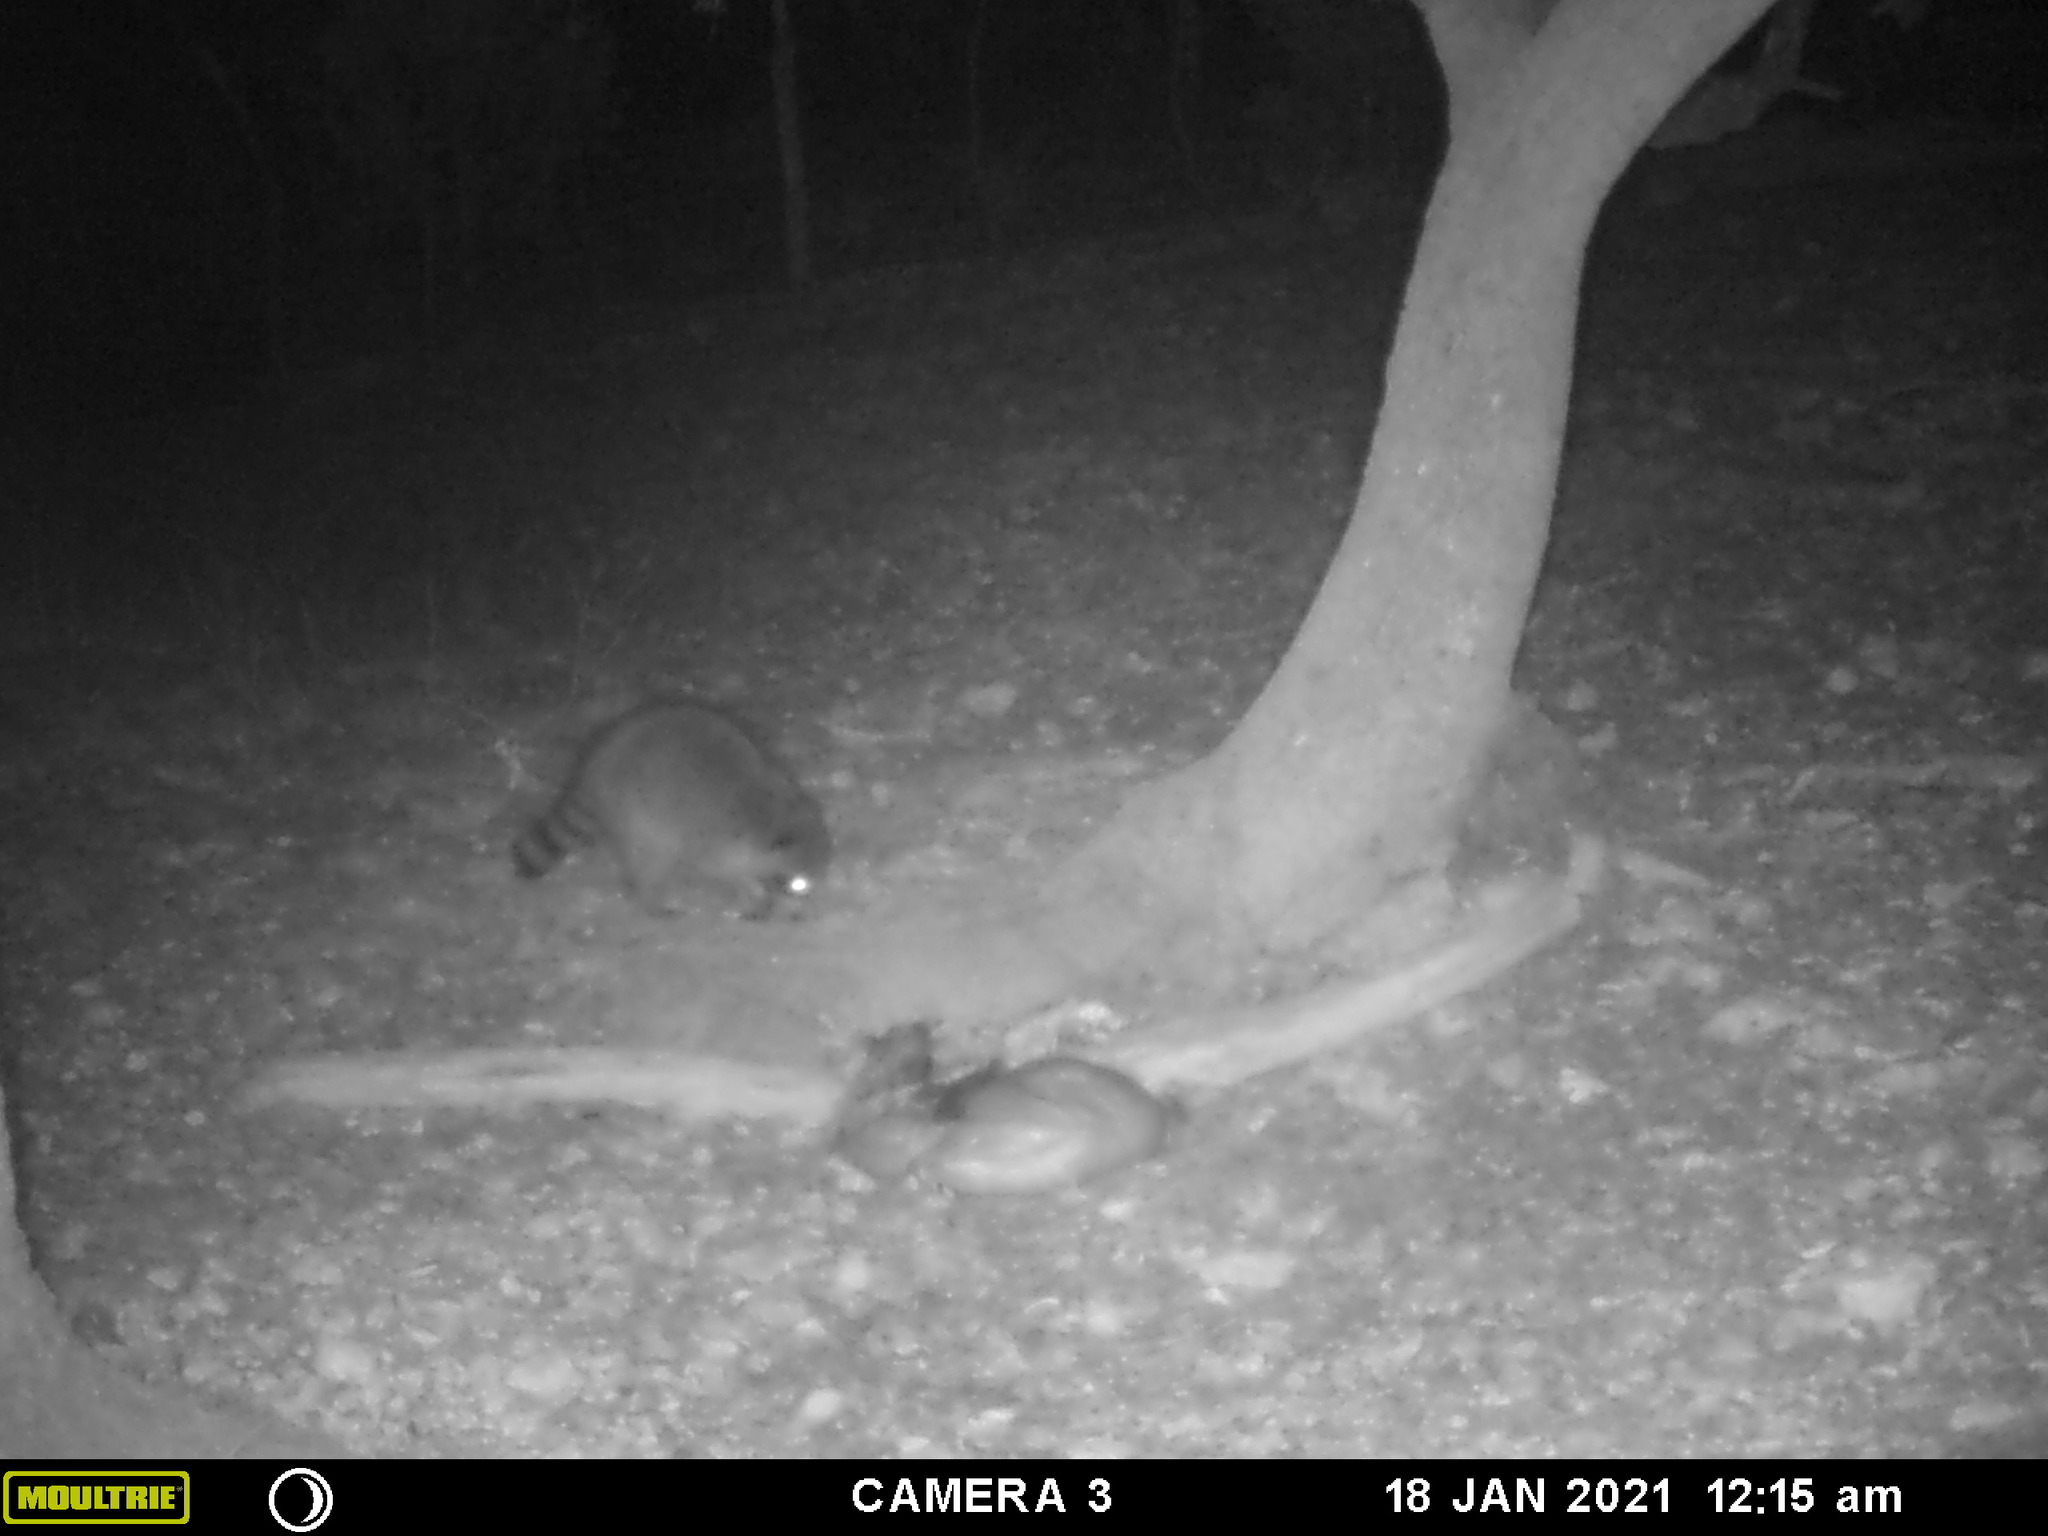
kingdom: Animalia
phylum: Chordata
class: Mammalia
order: Carnivora
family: Procyonidae
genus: Procyon
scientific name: Procyon lotor
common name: Raccoon
